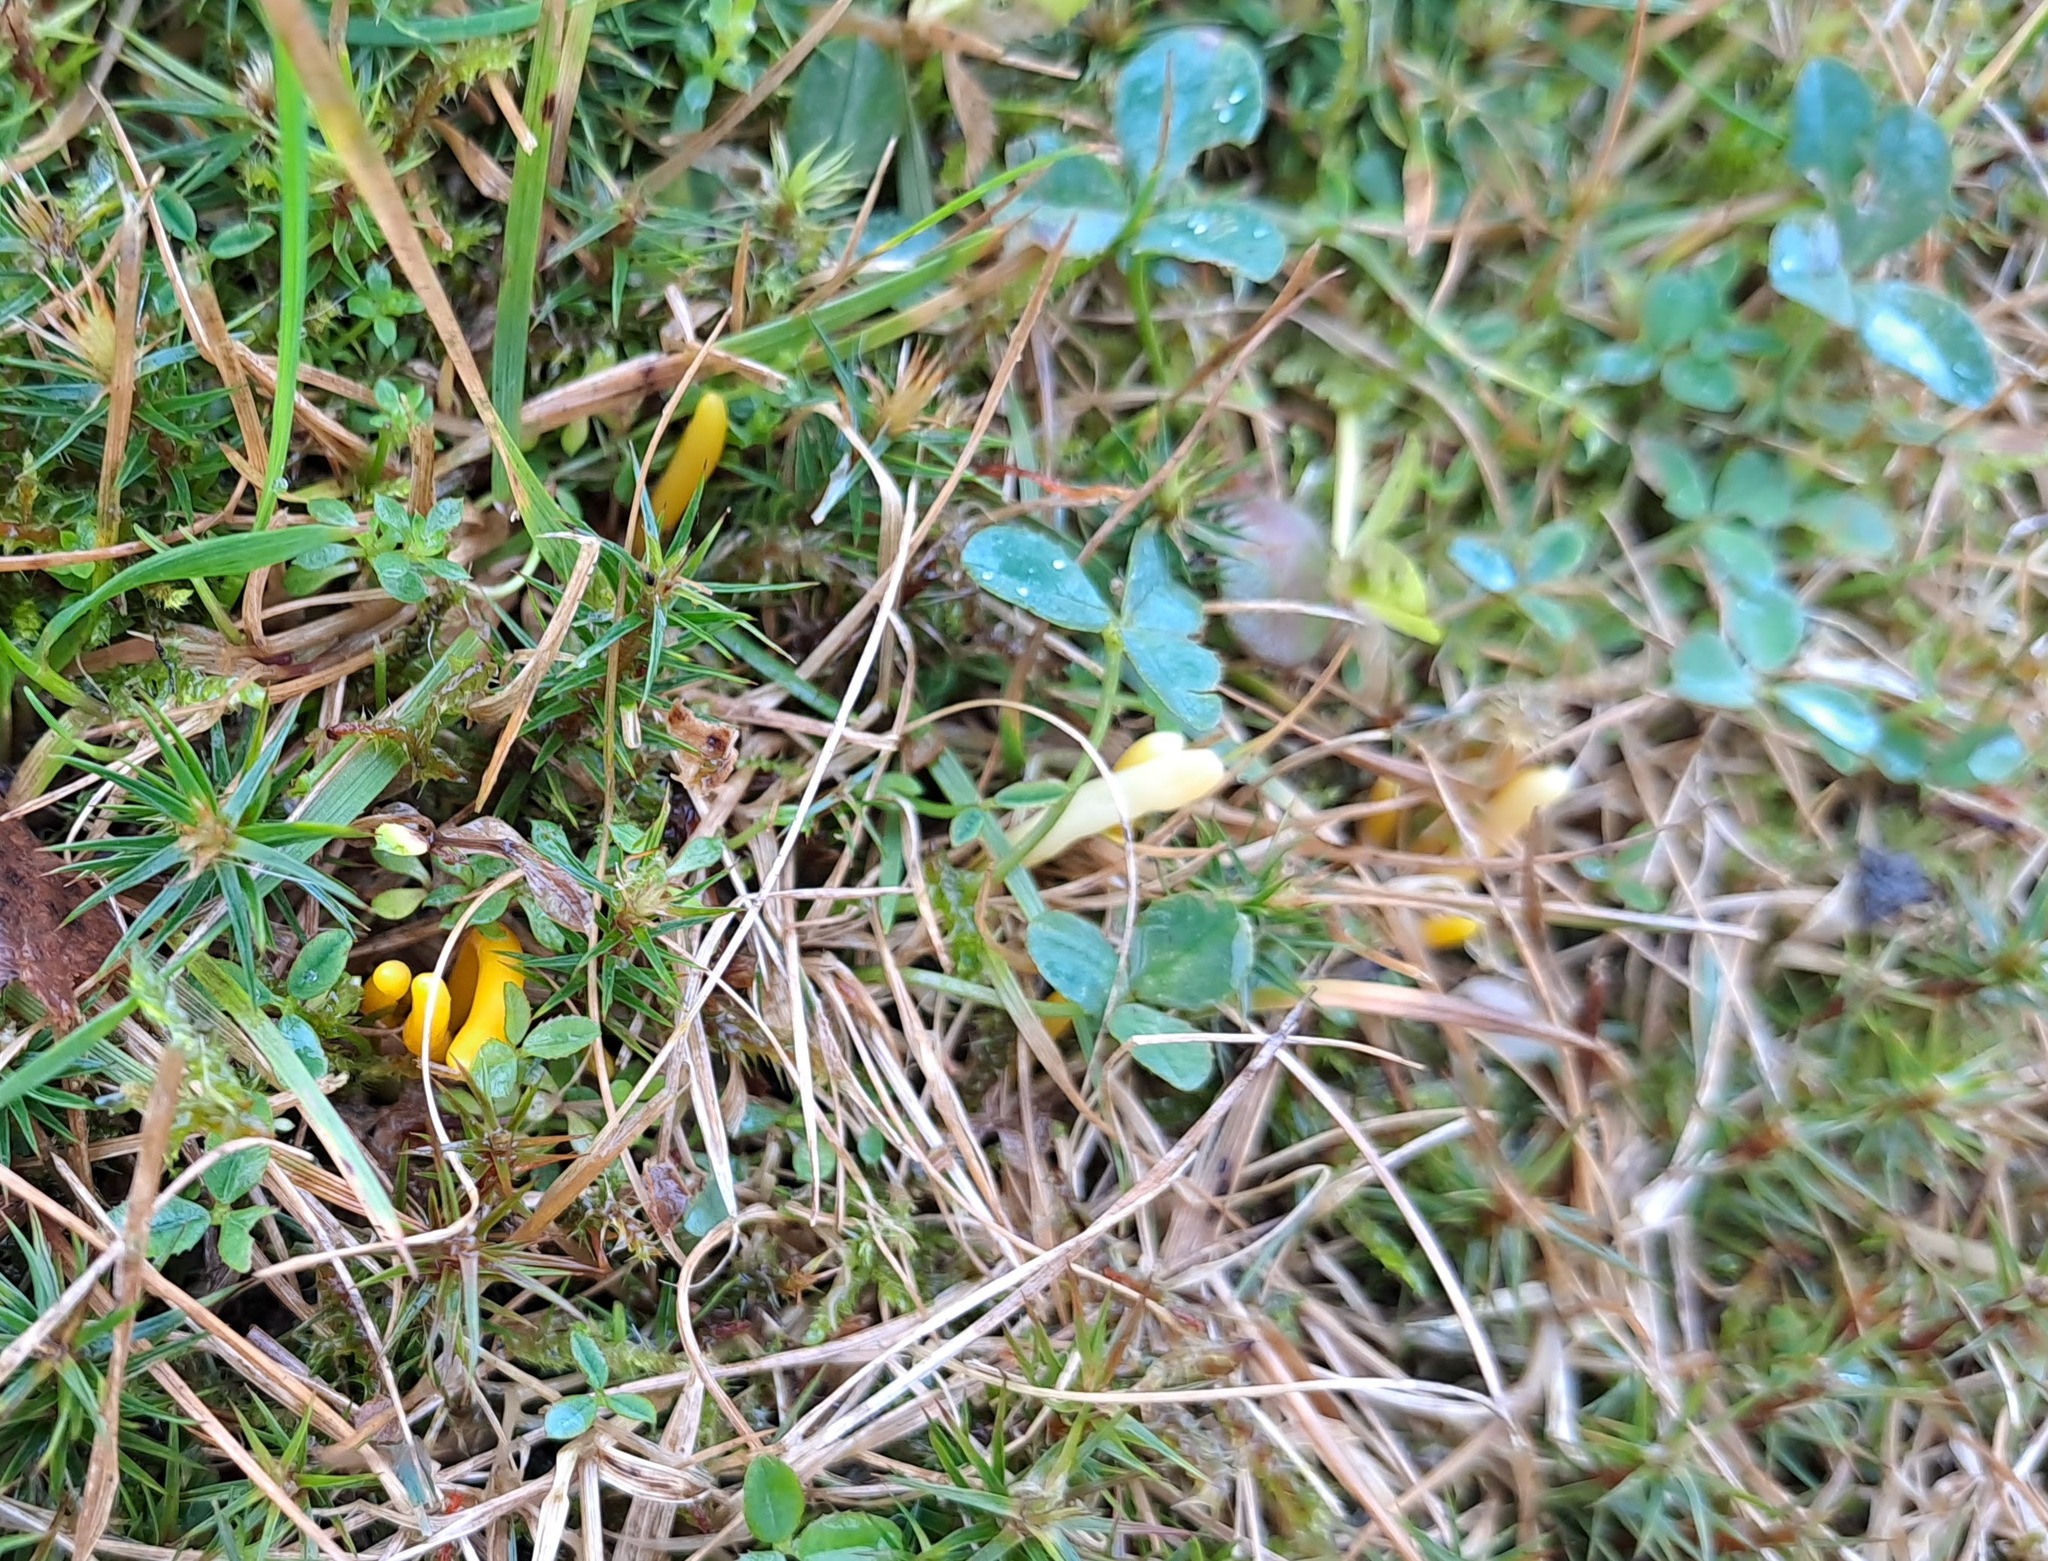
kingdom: Fungi
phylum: Basidiomycota
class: Agaricomycetes
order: Agaricales
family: Clavariaceae
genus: Clavulinopsis
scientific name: Clavulinopsis helvola
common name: Yellow club
